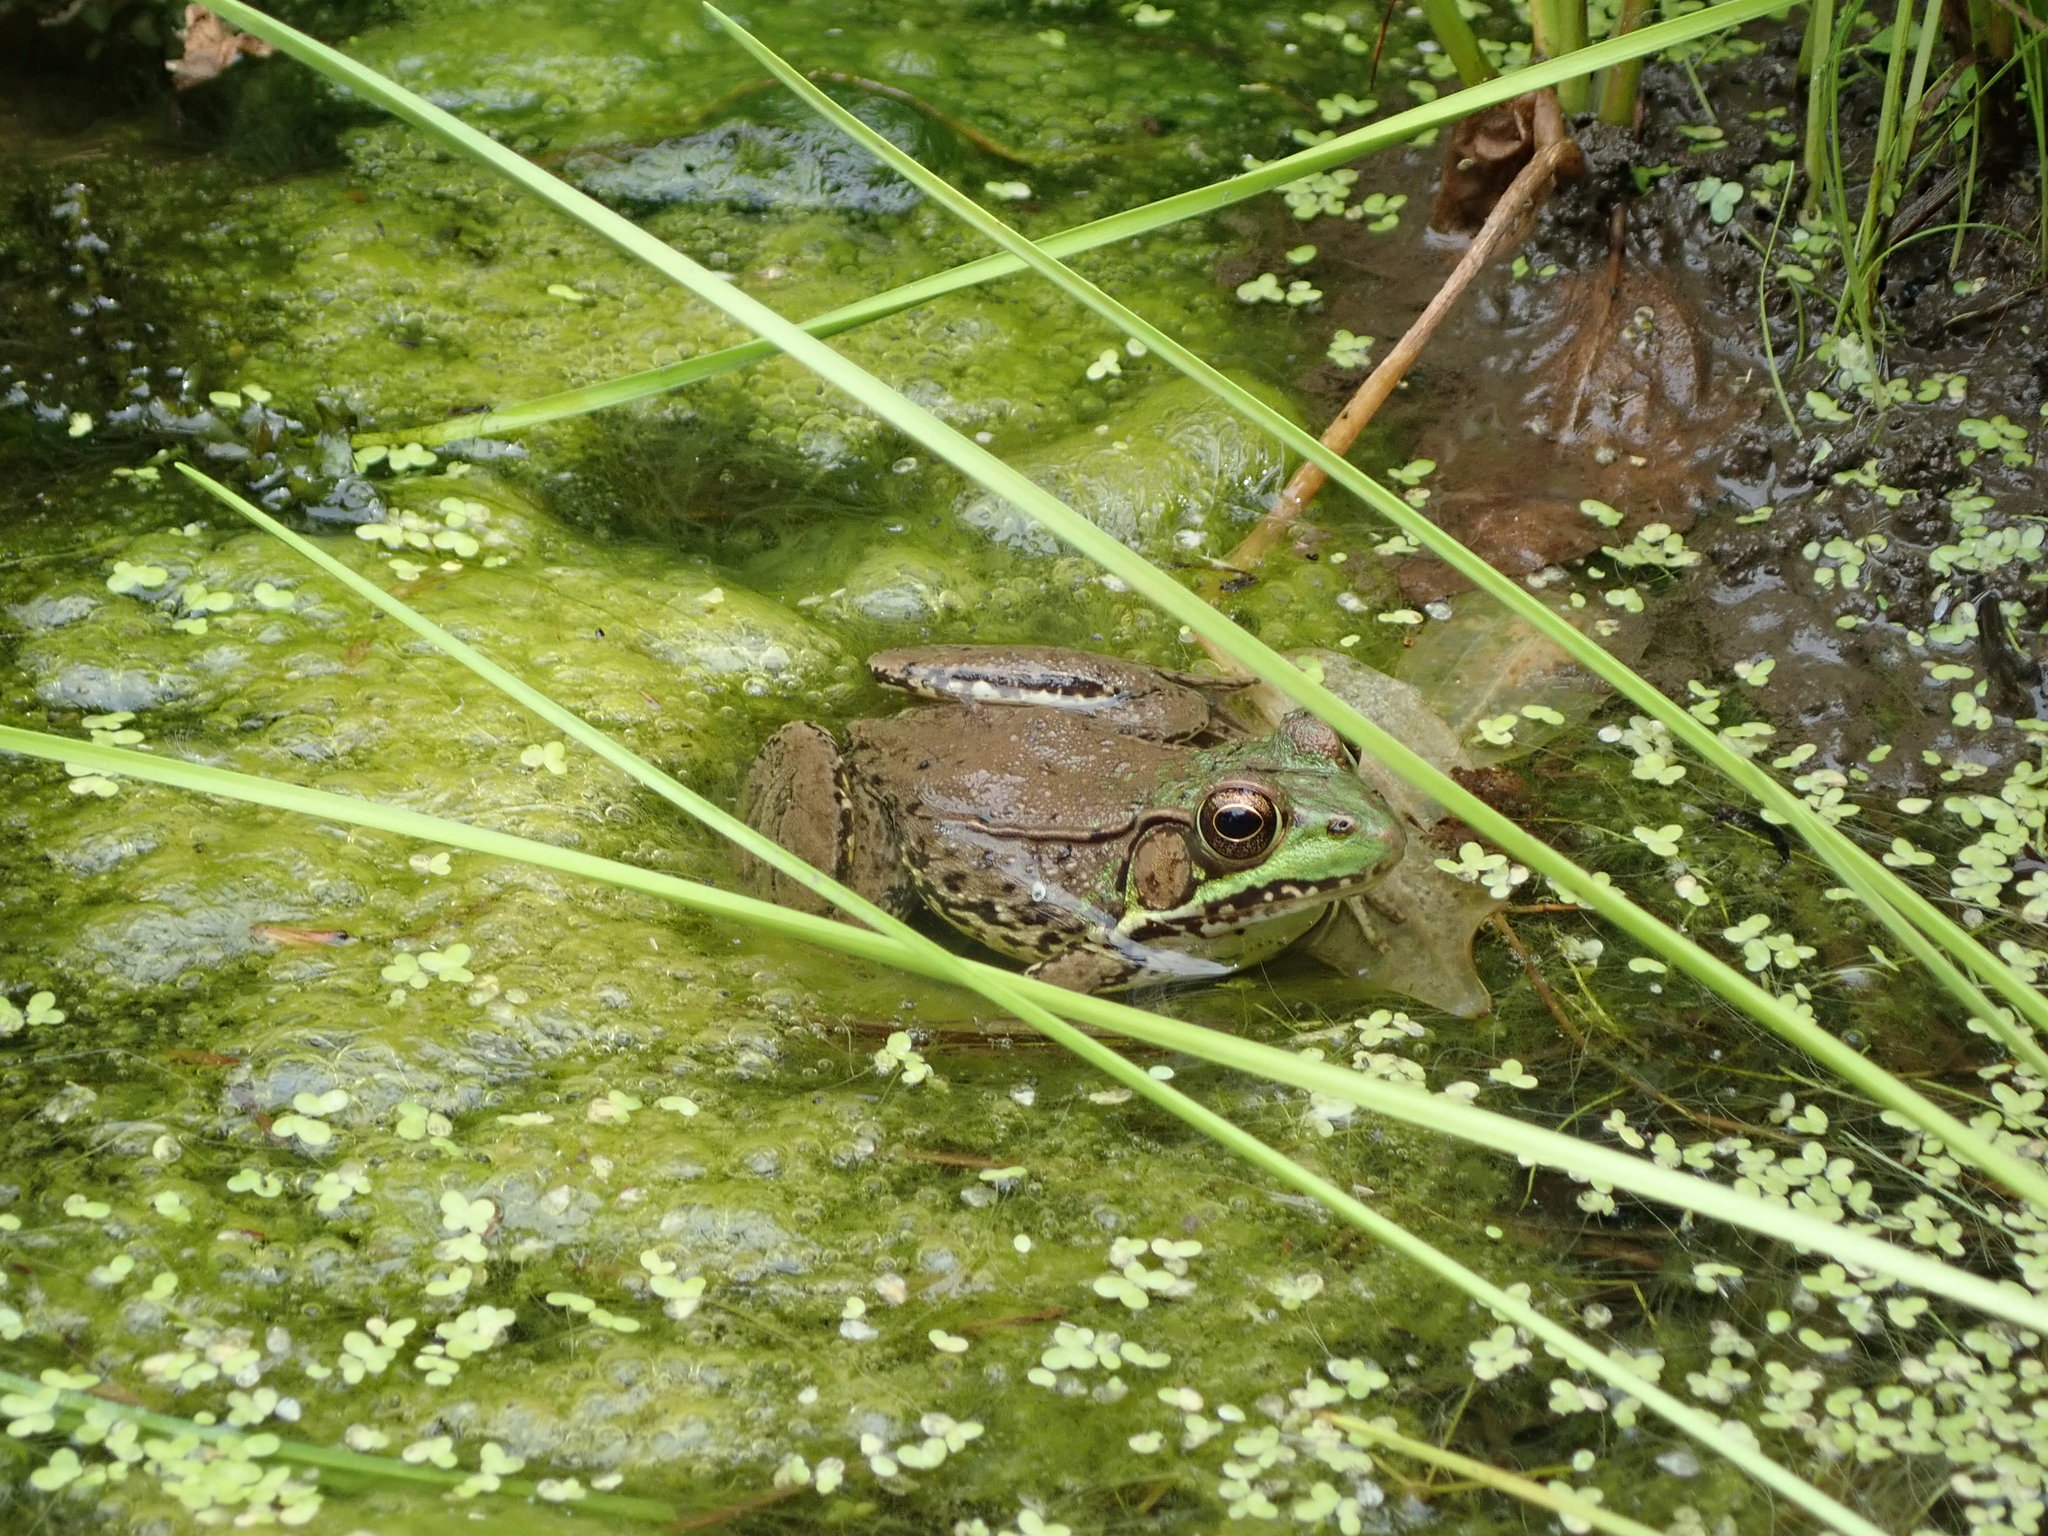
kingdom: Animalia
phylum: Chordata
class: Amphibia
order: Anura
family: Ranidae
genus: Lithobates
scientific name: Lithobates clamitans
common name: Green frog
